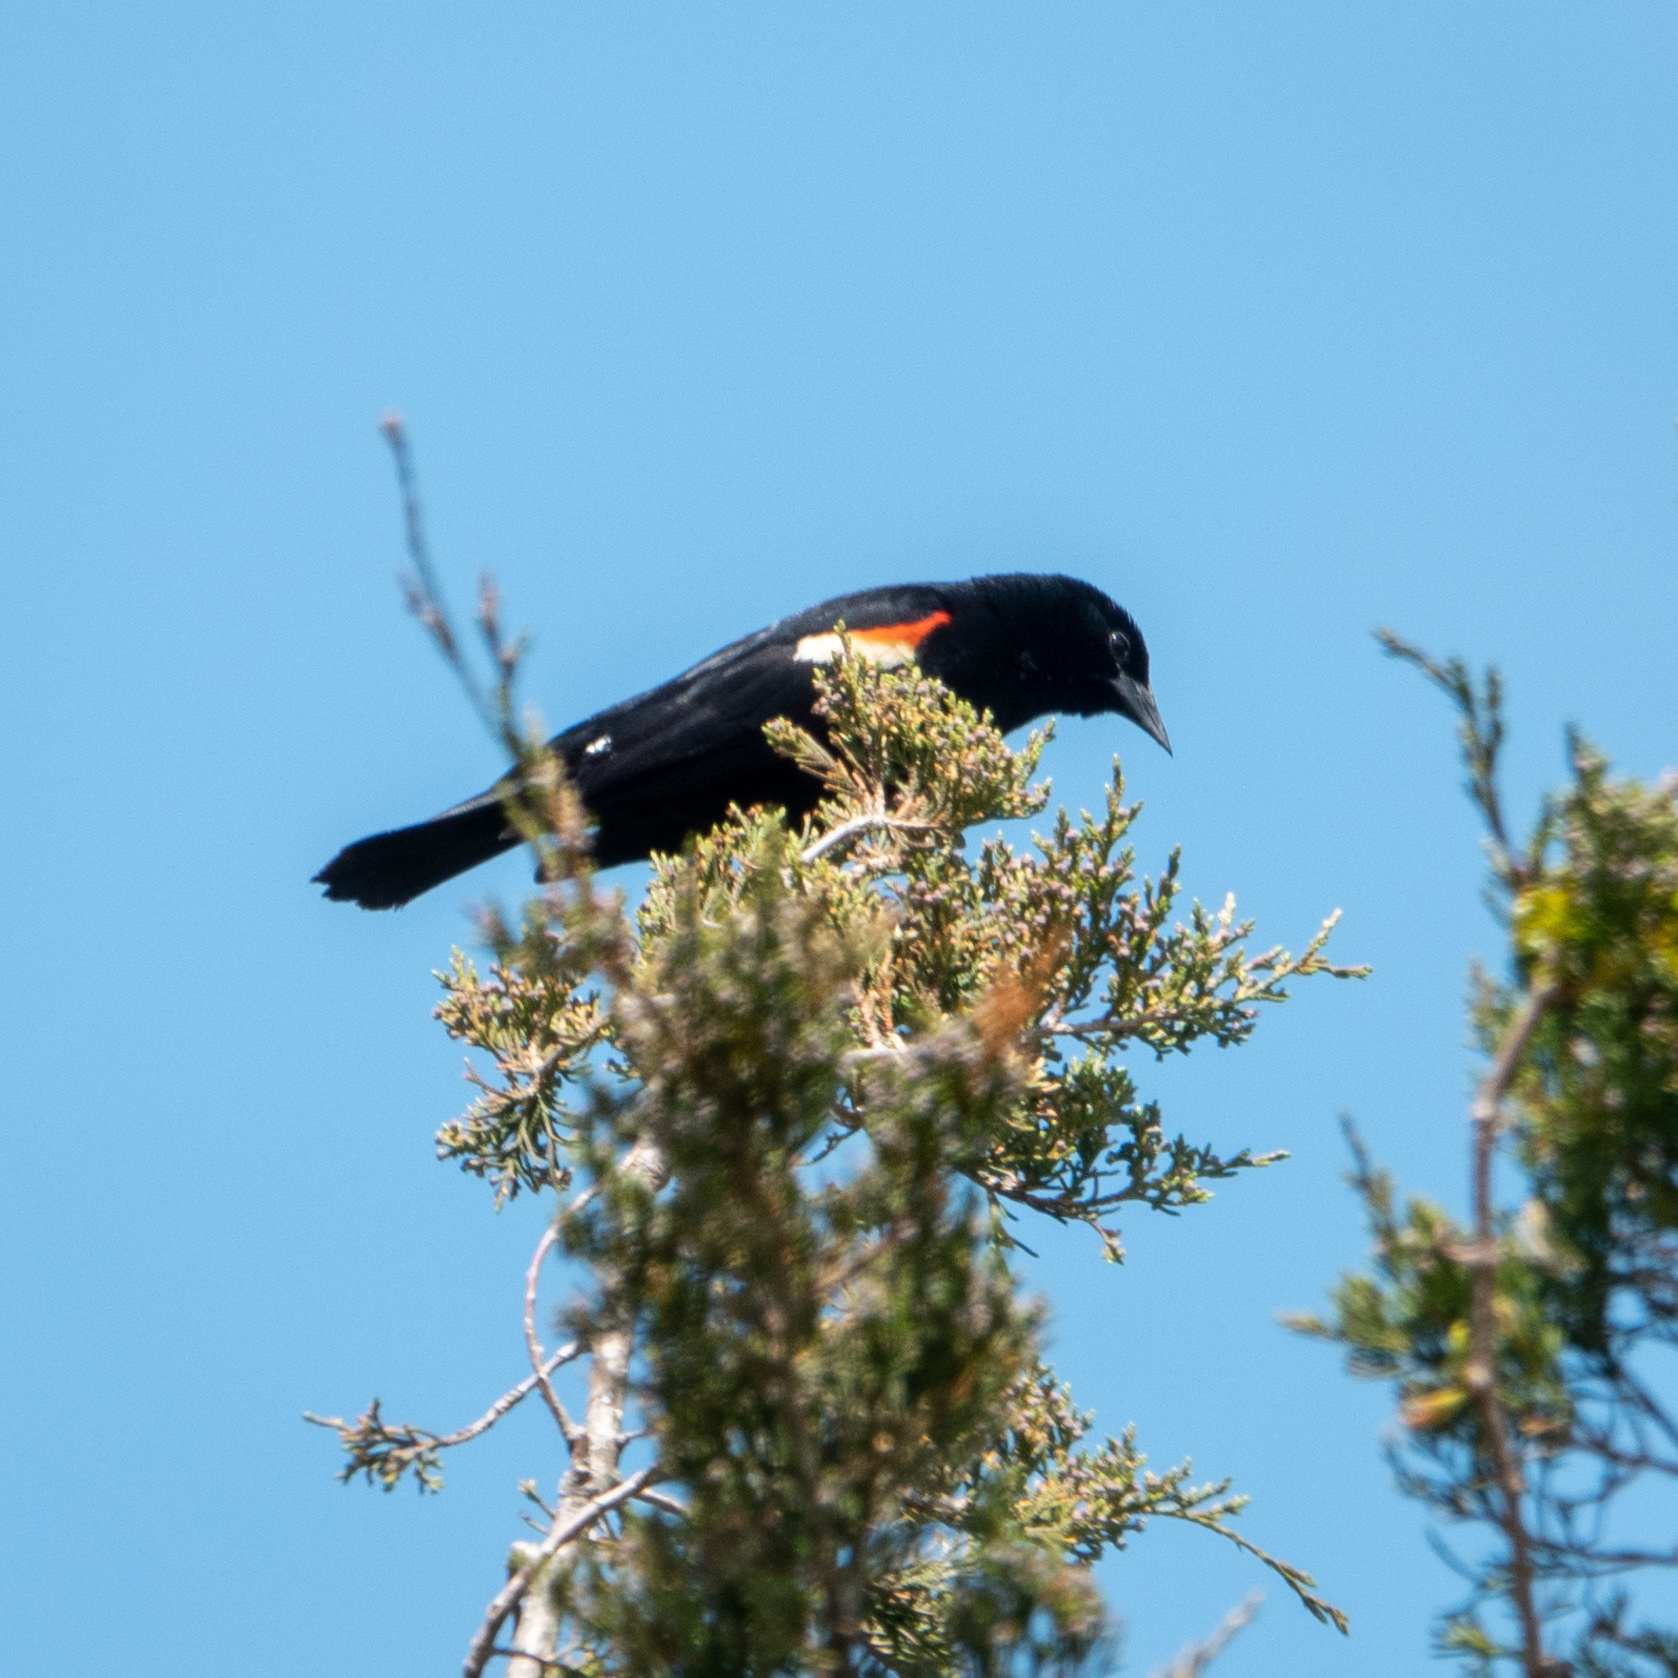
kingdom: Animalia
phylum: Chordata
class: Aves
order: Passeriformes
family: Icteridae
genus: Agelaius
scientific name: Agelaius phoeniceus
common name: Red-winged blackbird
